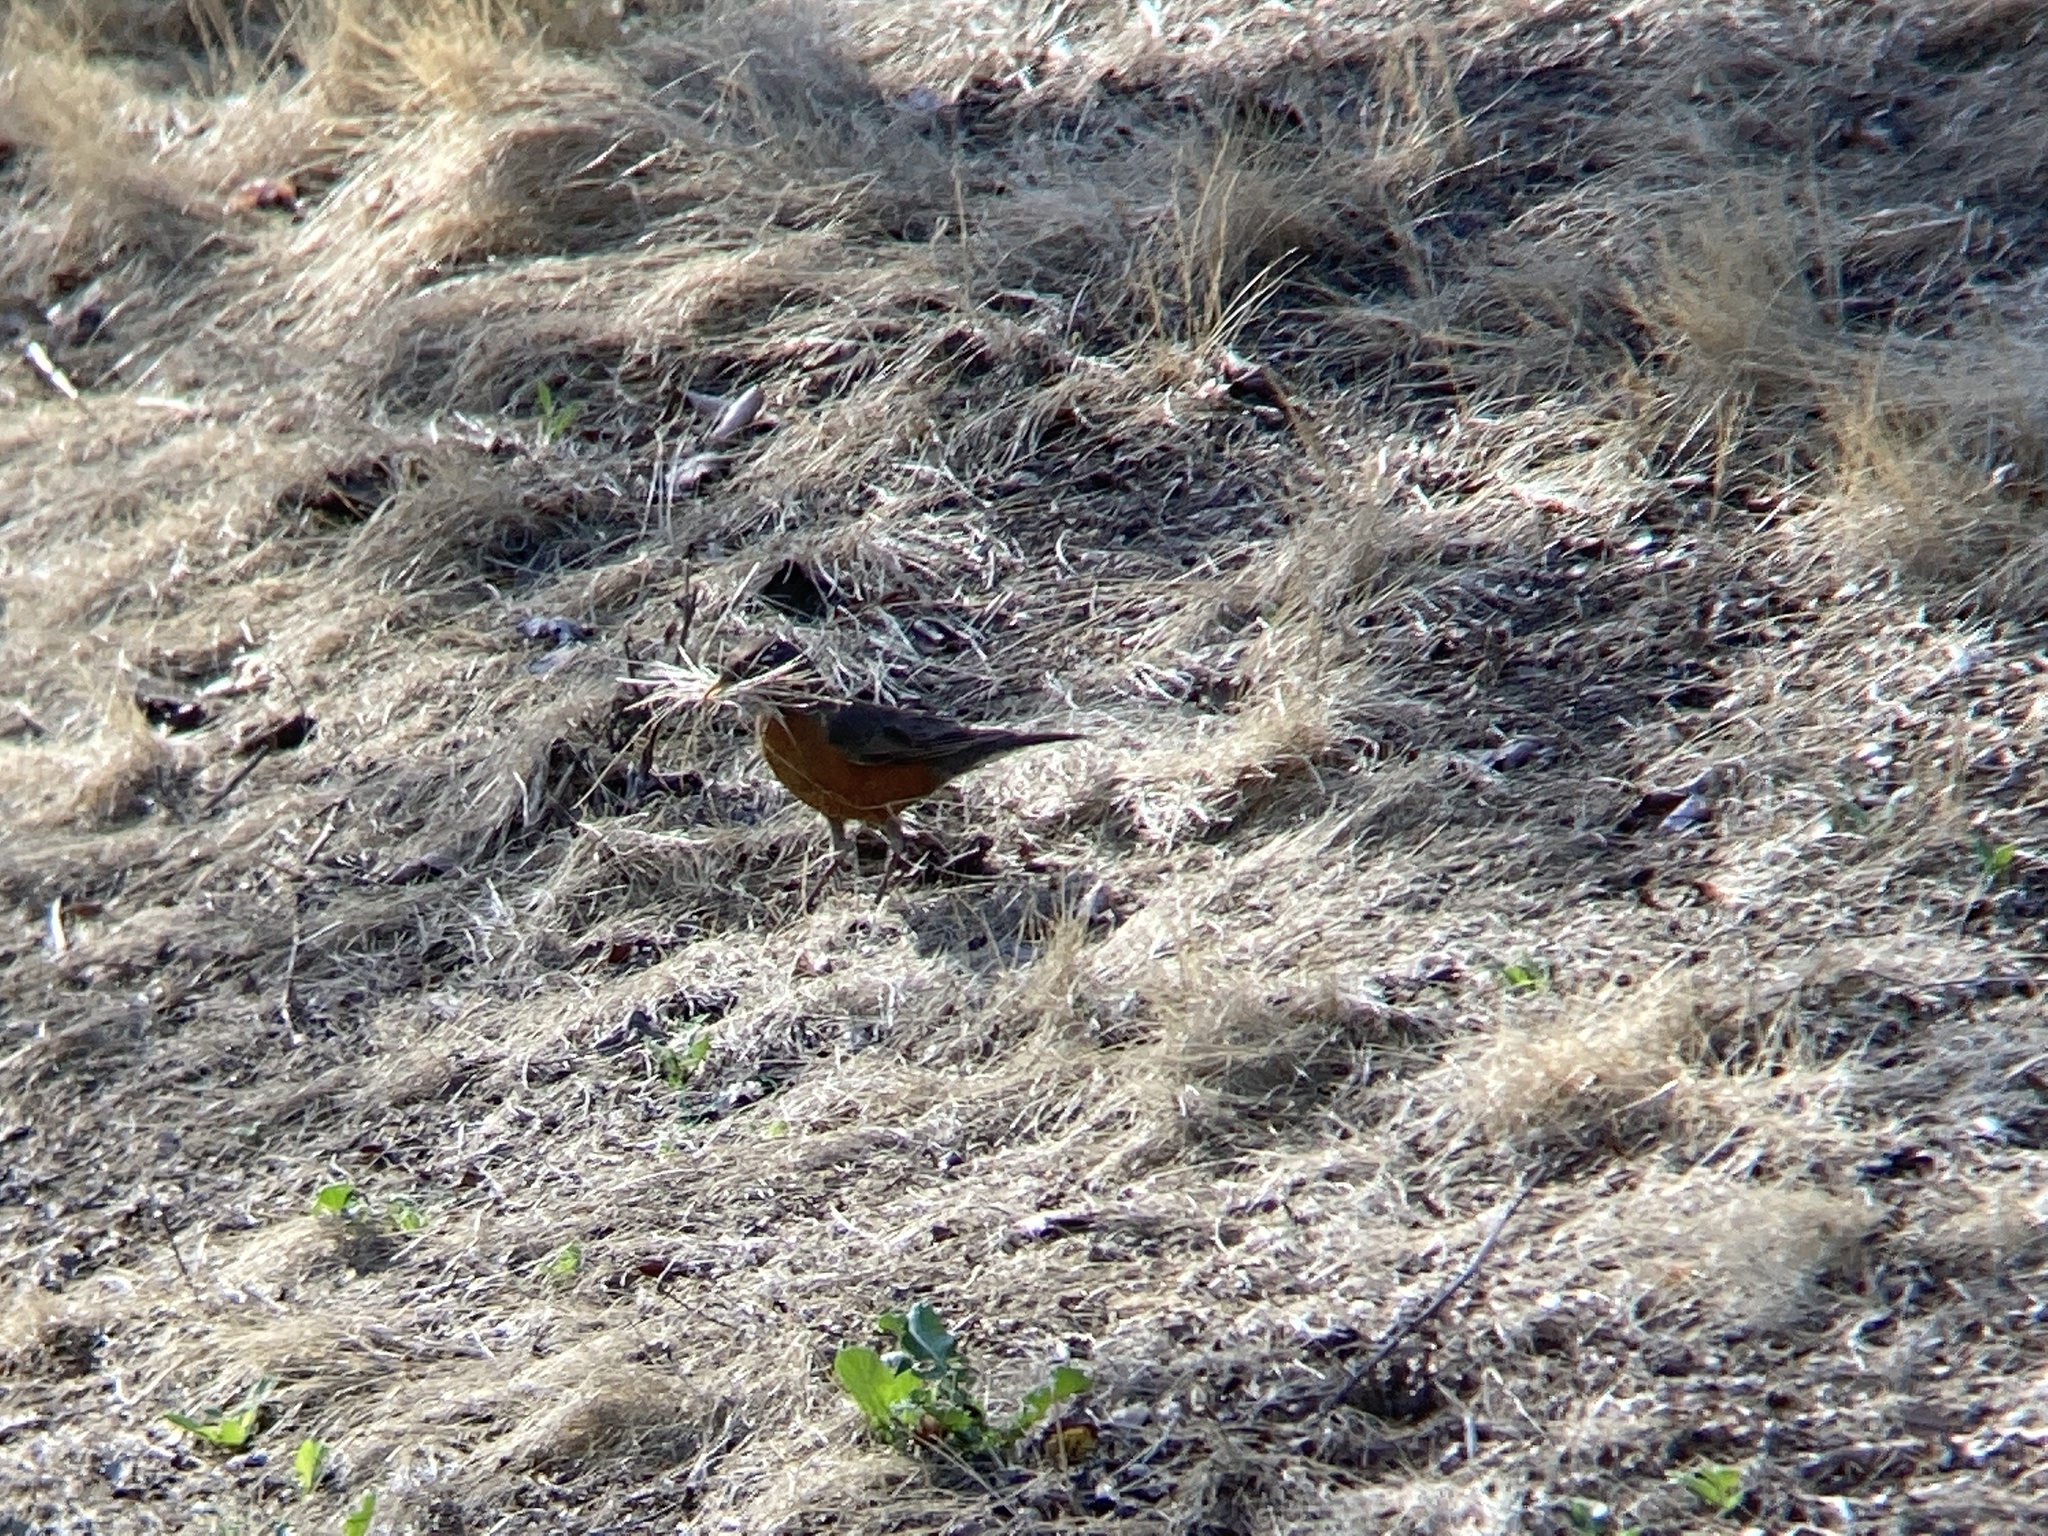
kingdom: Animalia
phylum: Chordata
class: Aves
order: Passeriformes
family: Turdidae
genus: Turdus
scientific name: Turdus migratorius
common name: American robin
